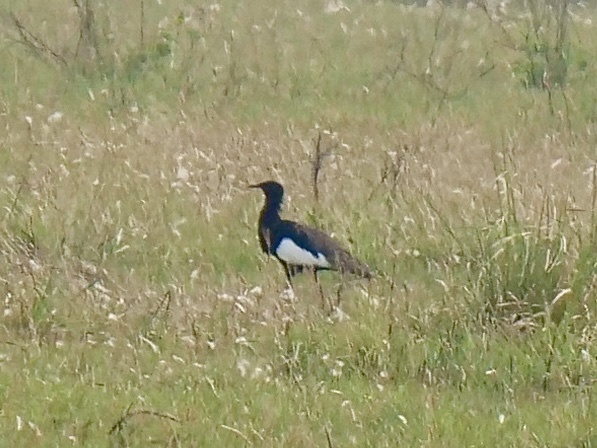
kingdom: Animalia
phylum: Chordata
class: Aves
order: Otidiformes
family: Otididae
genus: Houbaropsis
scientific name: Houbaropsis bengalensis
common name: Bengal florican
